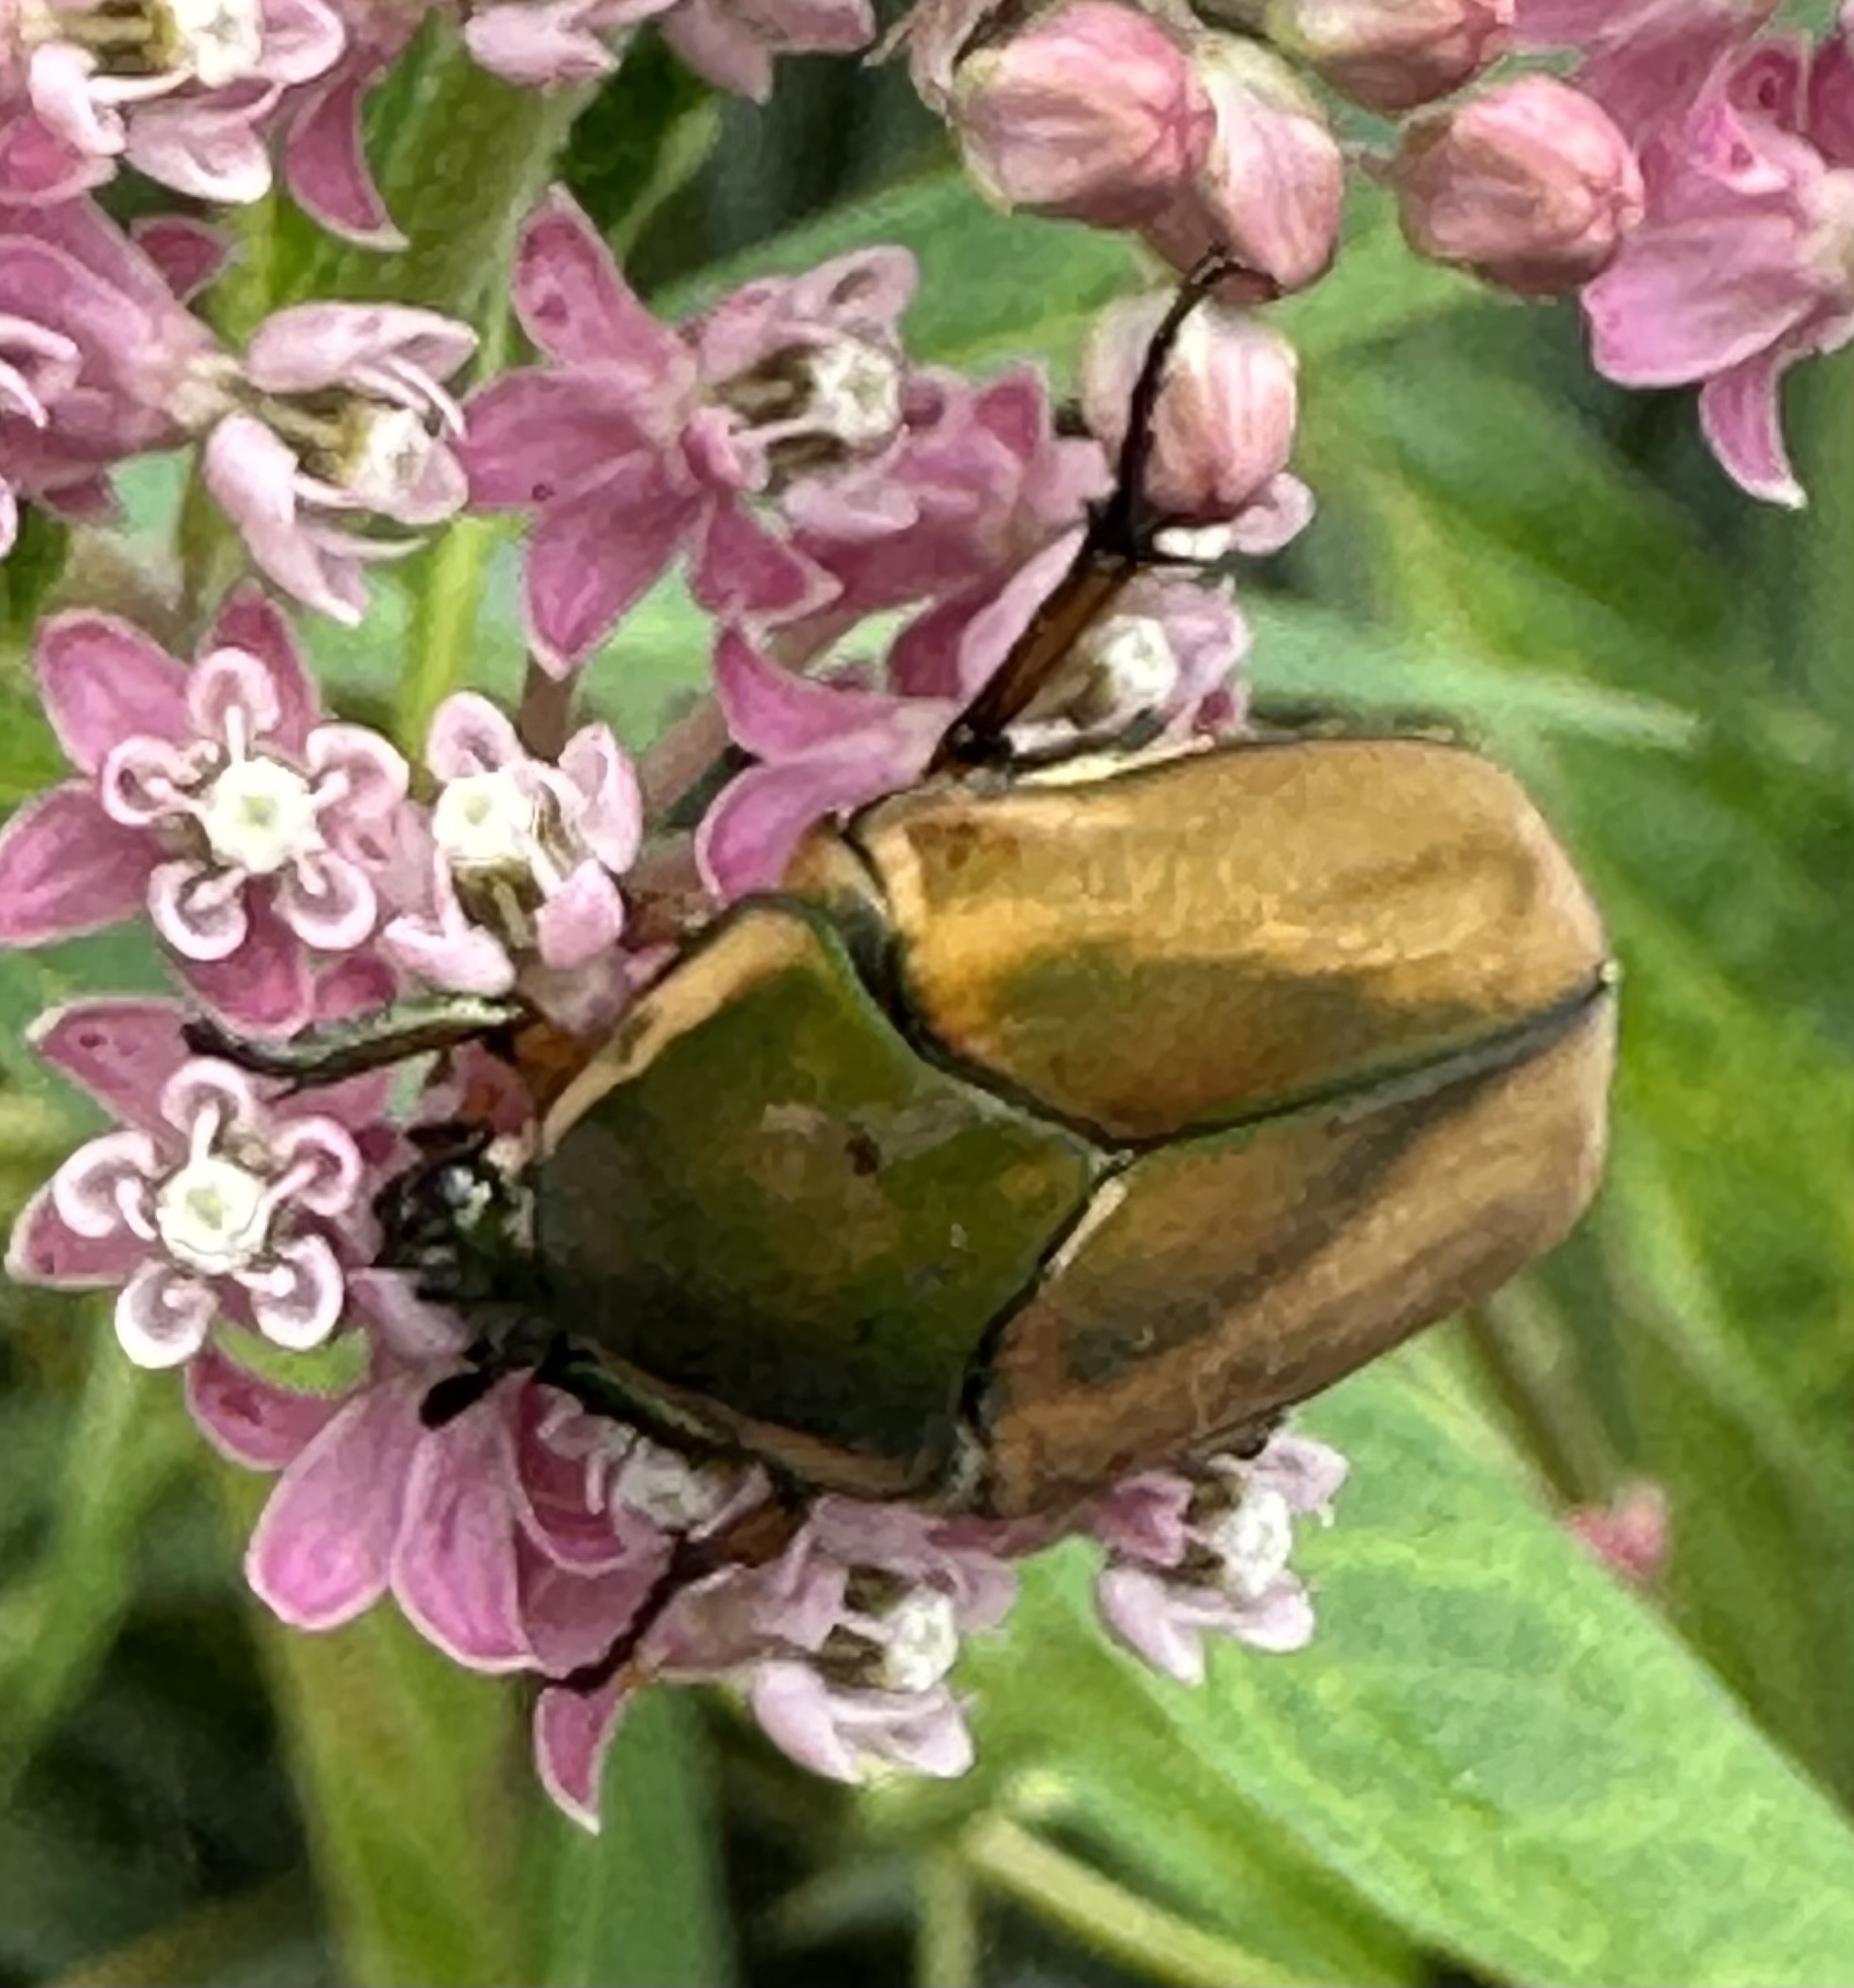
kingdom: Animalia
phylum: Arthropoda
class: Insecta
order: Coleoptera
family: Scarabaeidae
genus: Cotinis
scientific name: Cotinis nitida
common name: Common green june beetle
